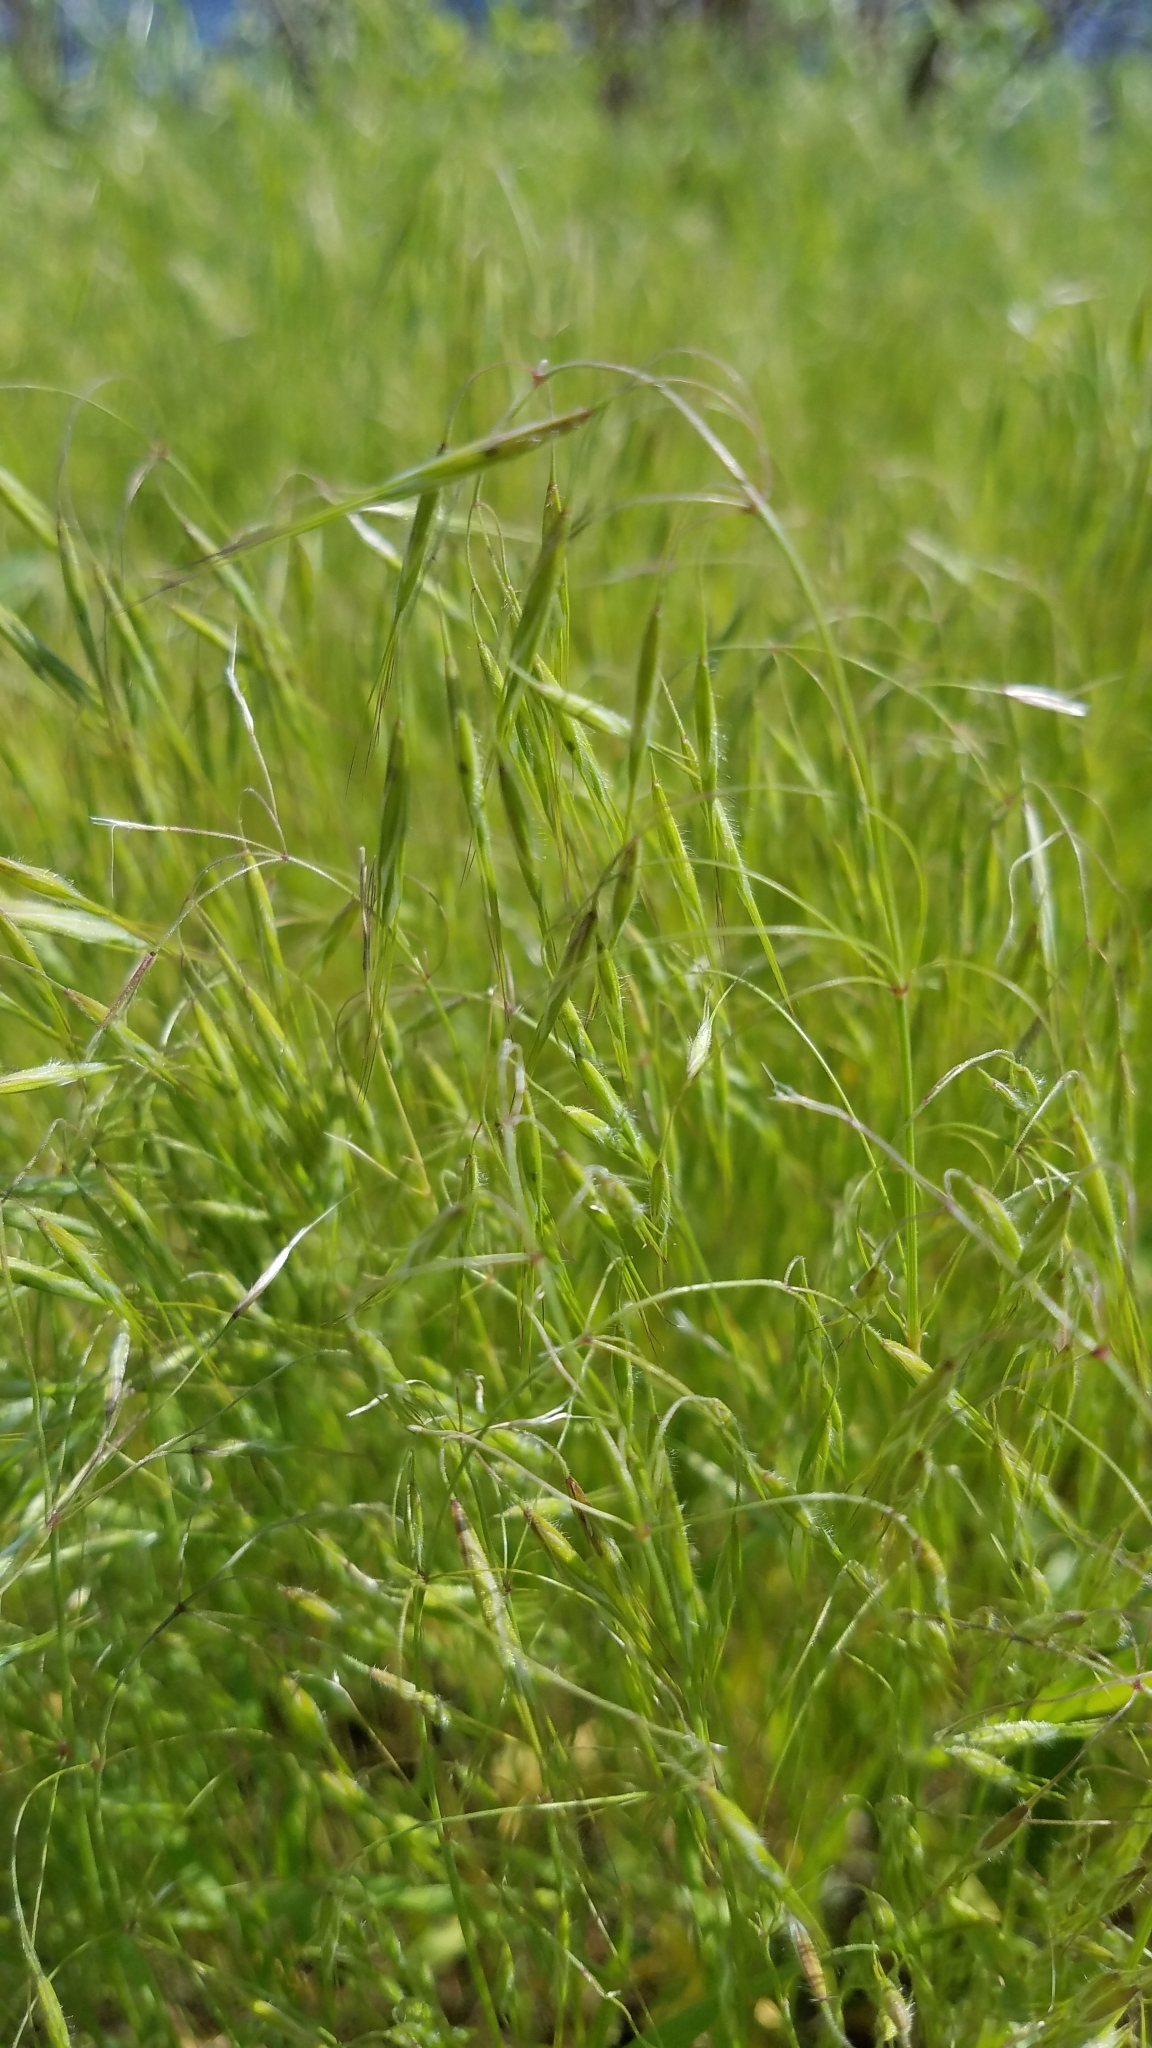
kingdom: Plantae
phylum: Tracheophyta
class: Liliopsida
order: Poales
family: Poaceae
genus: Bromus
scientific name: Bromus tectorum
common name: Cheatgrass
